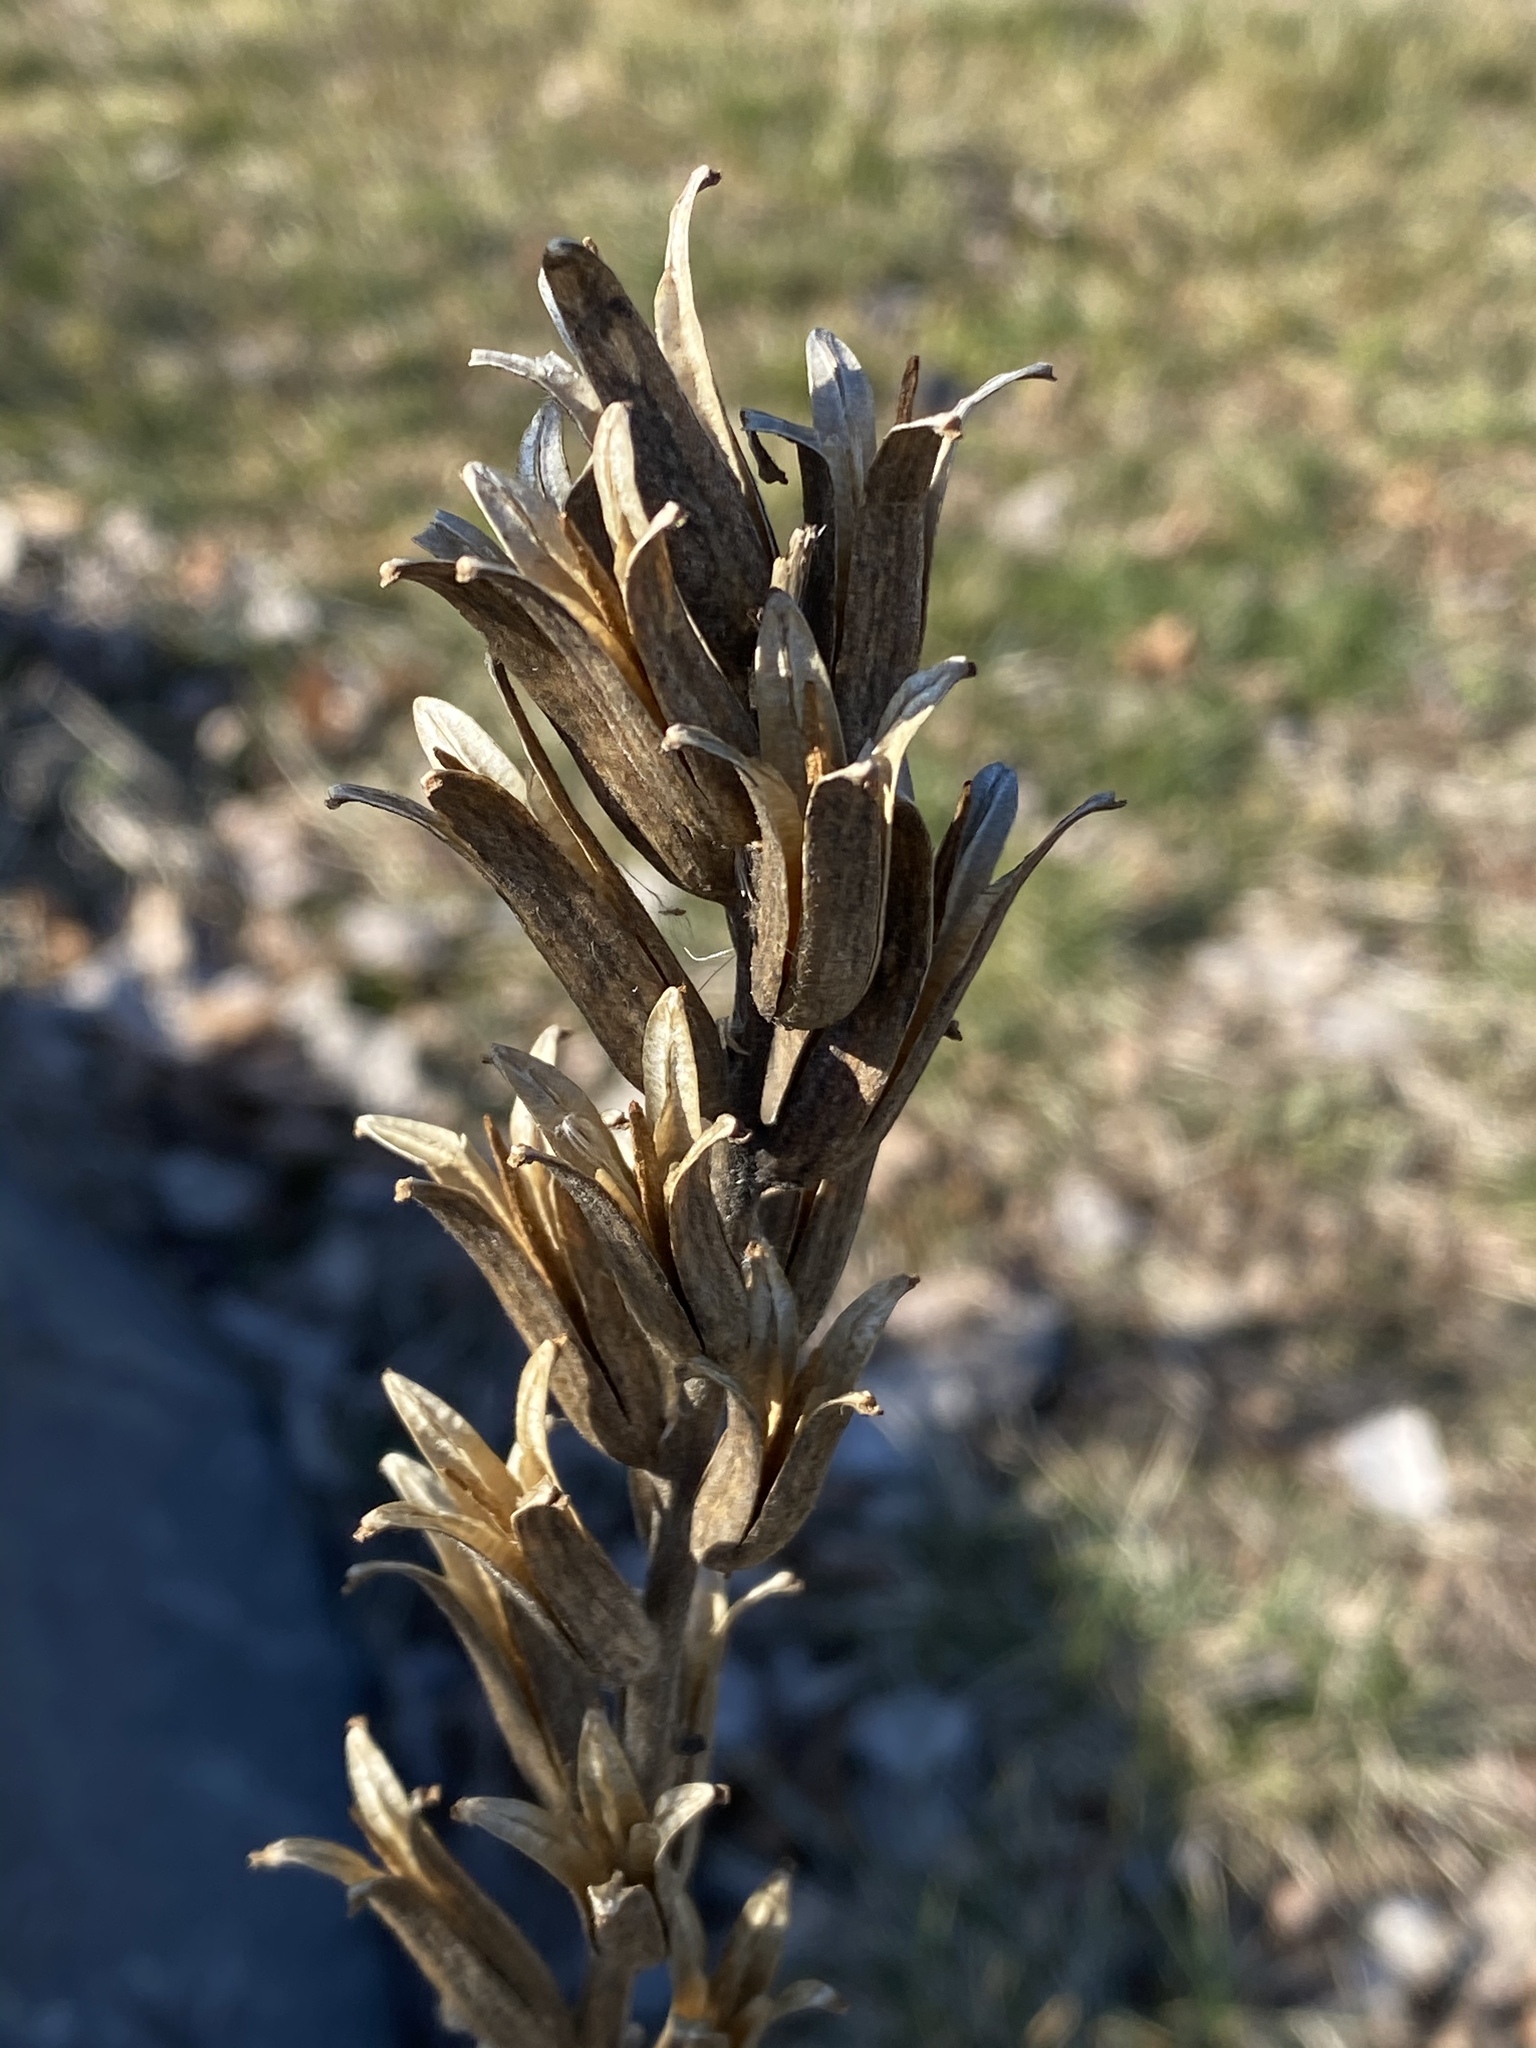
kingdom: Plantae
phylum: Tracheophyta
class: Magnoliopsida
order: Myrtales
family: Onagraceae
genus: Oenothera
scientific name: Oenothera biennis
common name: Common evening-primrose
